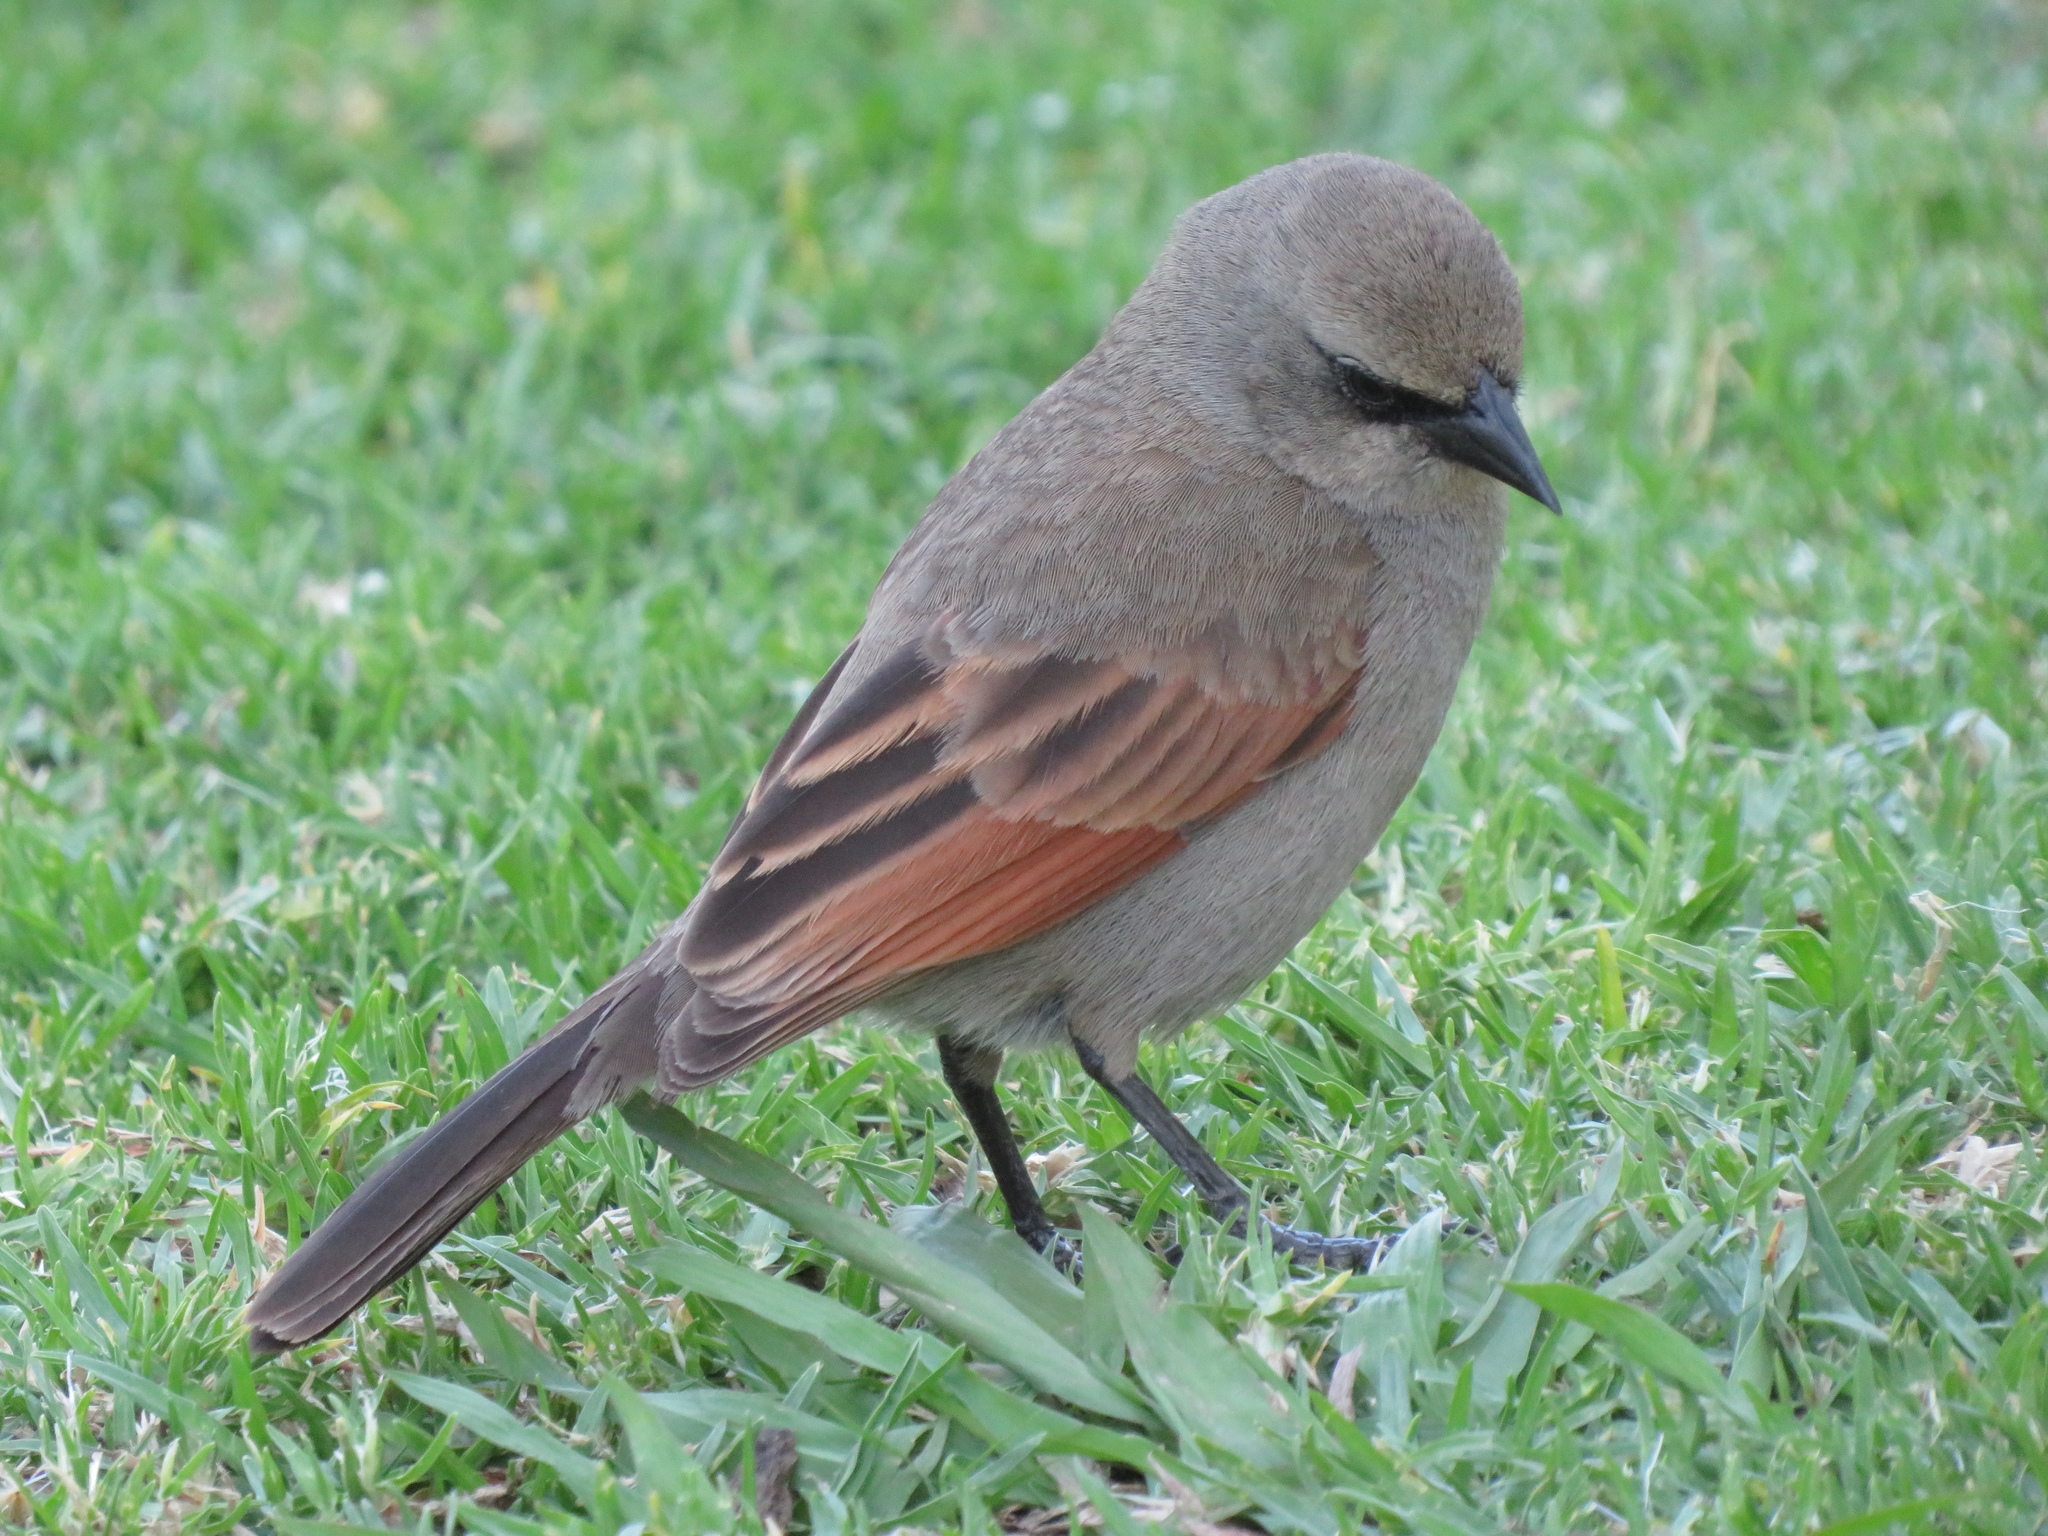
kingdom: Animalia
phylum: Chordata
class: Aves
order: Passeriformes
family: Icteridae
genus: Agelaioides
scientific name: Agelaioides badius
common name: Baywing
